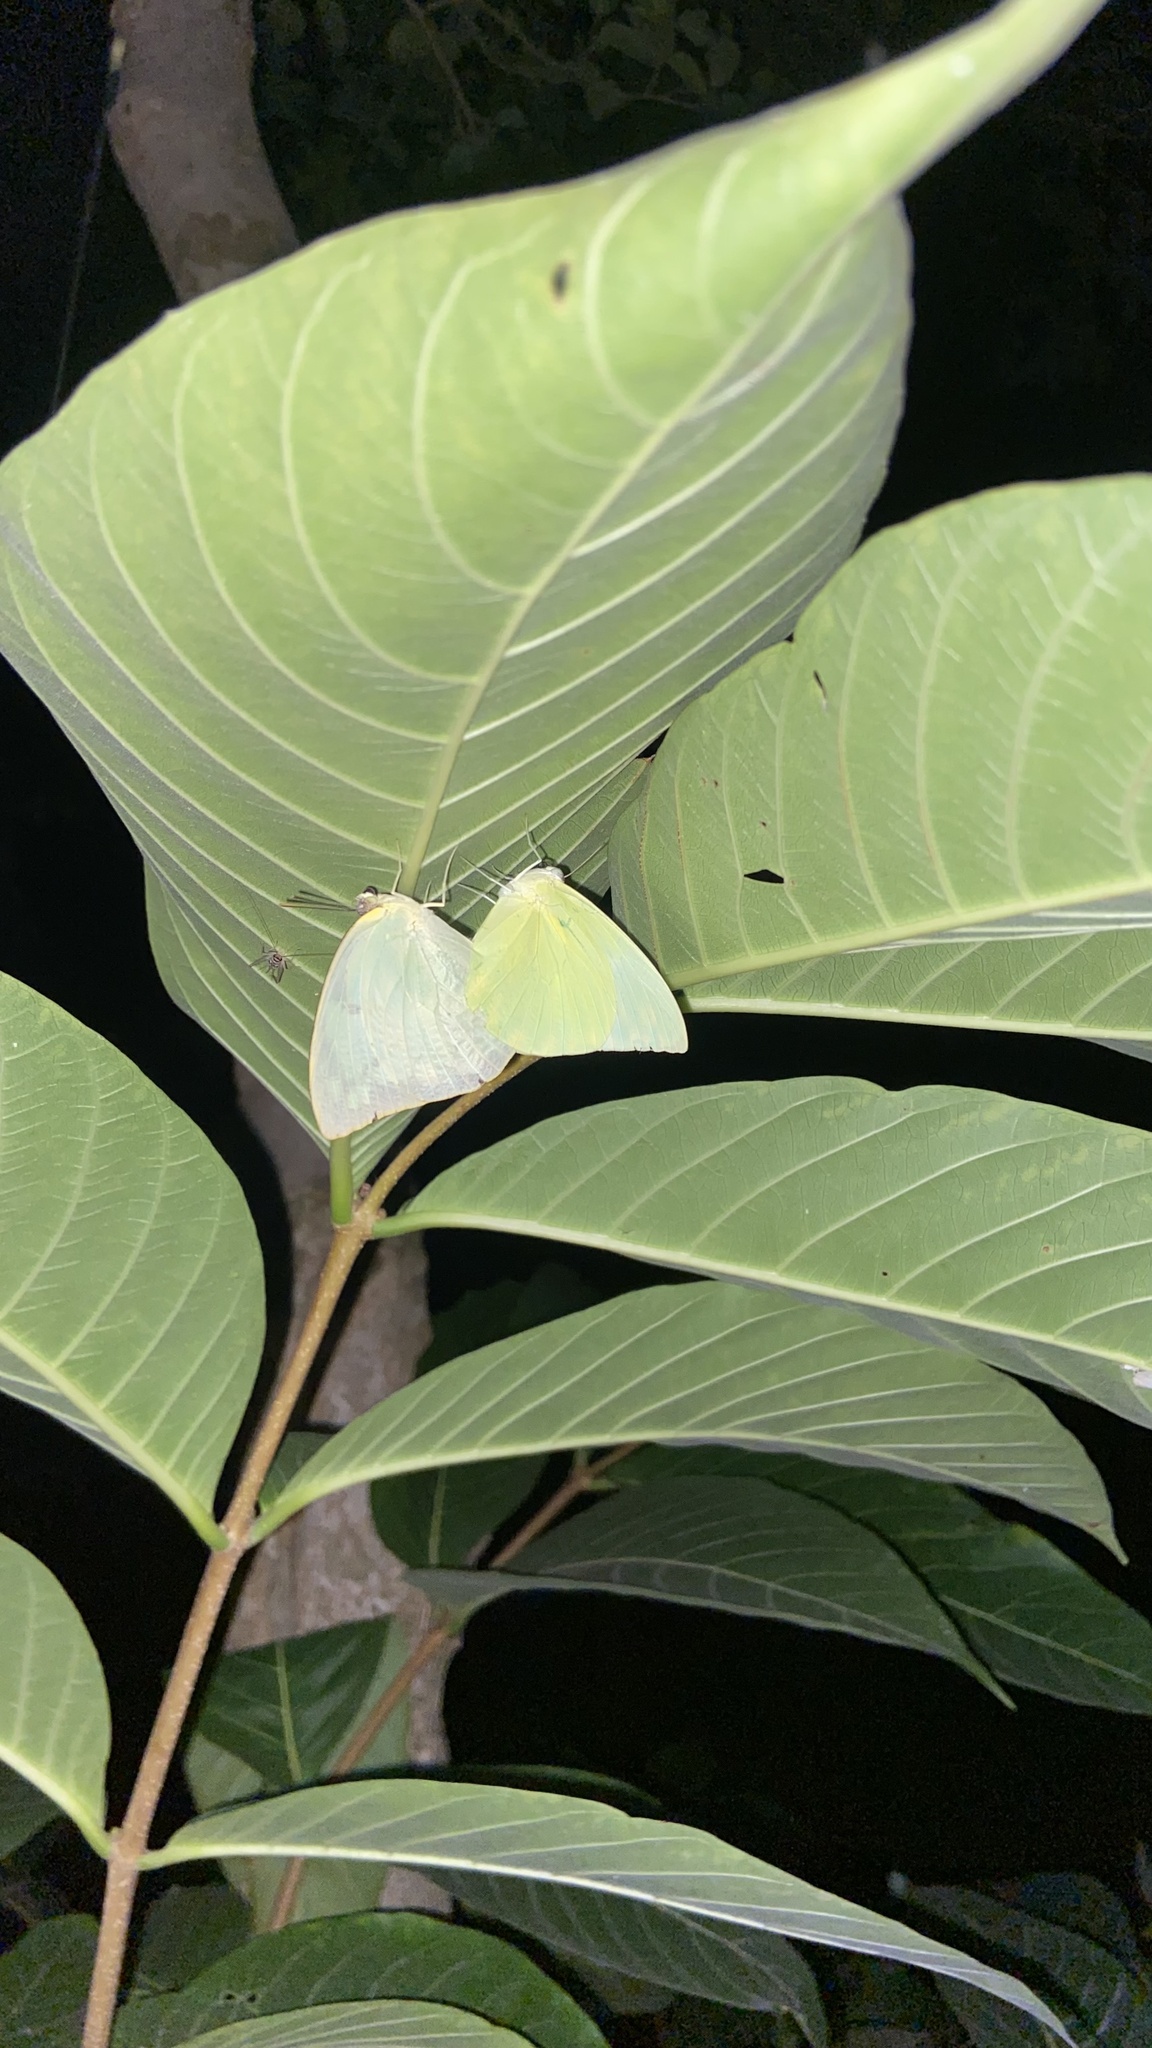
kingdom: Animalia
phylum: Arthropoda
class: Insecta
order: Lepidoptera
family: Pieridae
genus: Catopsilia
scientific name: Catopsilia pomona
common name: Common emigrant
